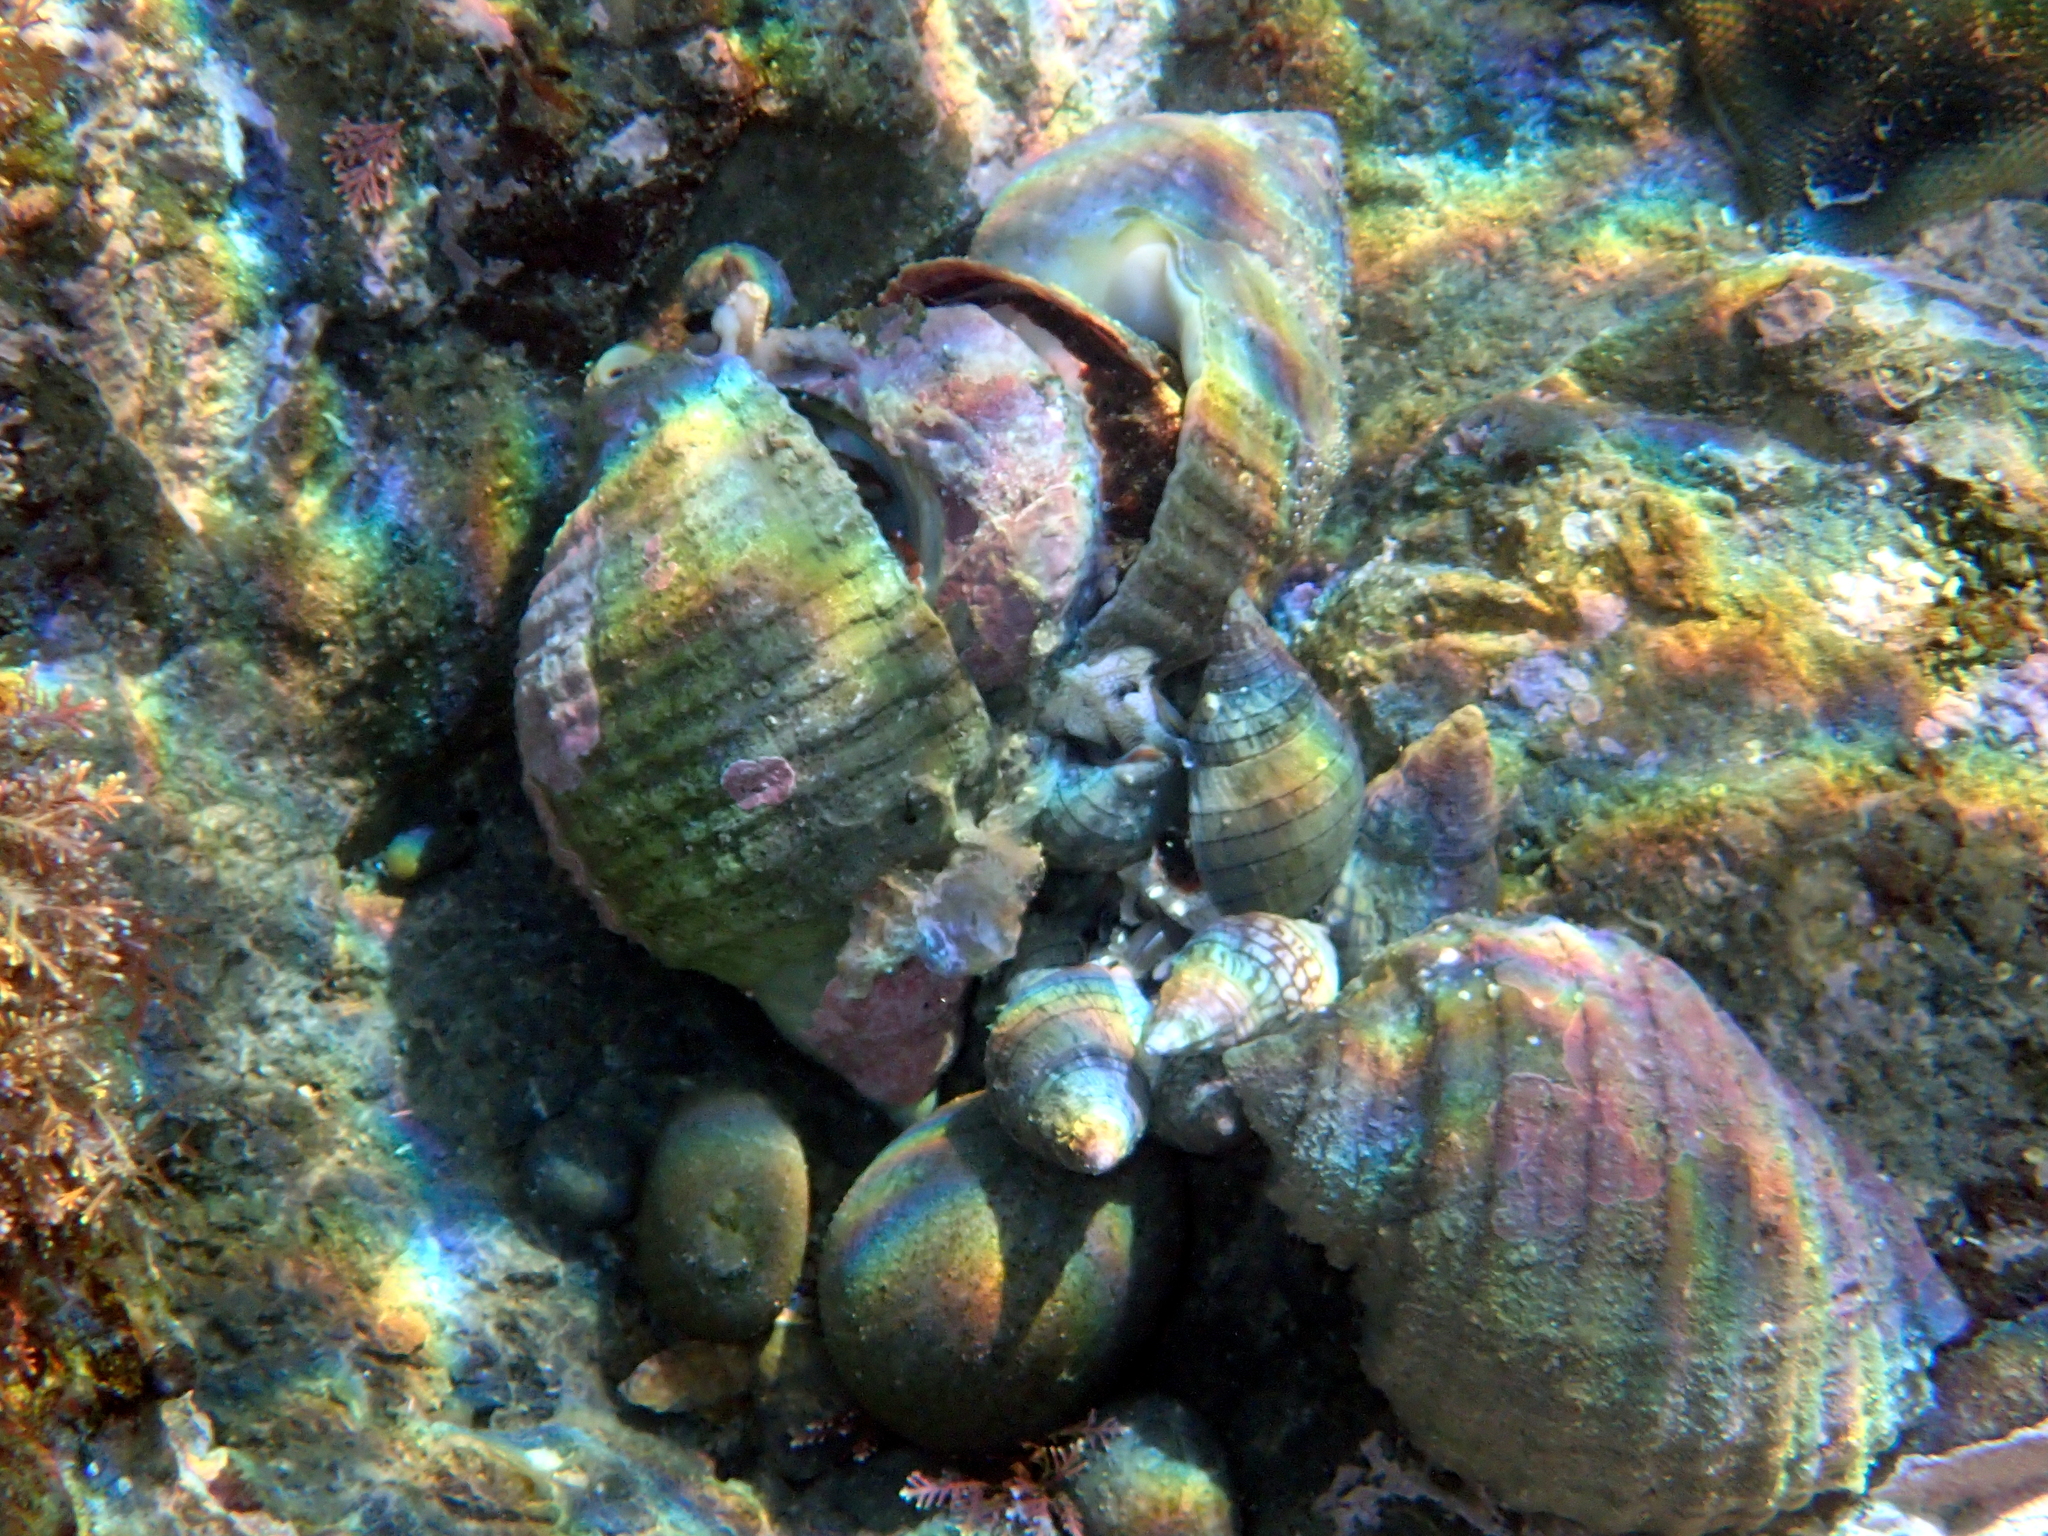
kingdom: Animalia
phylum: Mollusca
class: Gastropoda
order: Neogastropoda
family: Muricidae
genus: Dicathais
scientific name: Dicathais orbita
